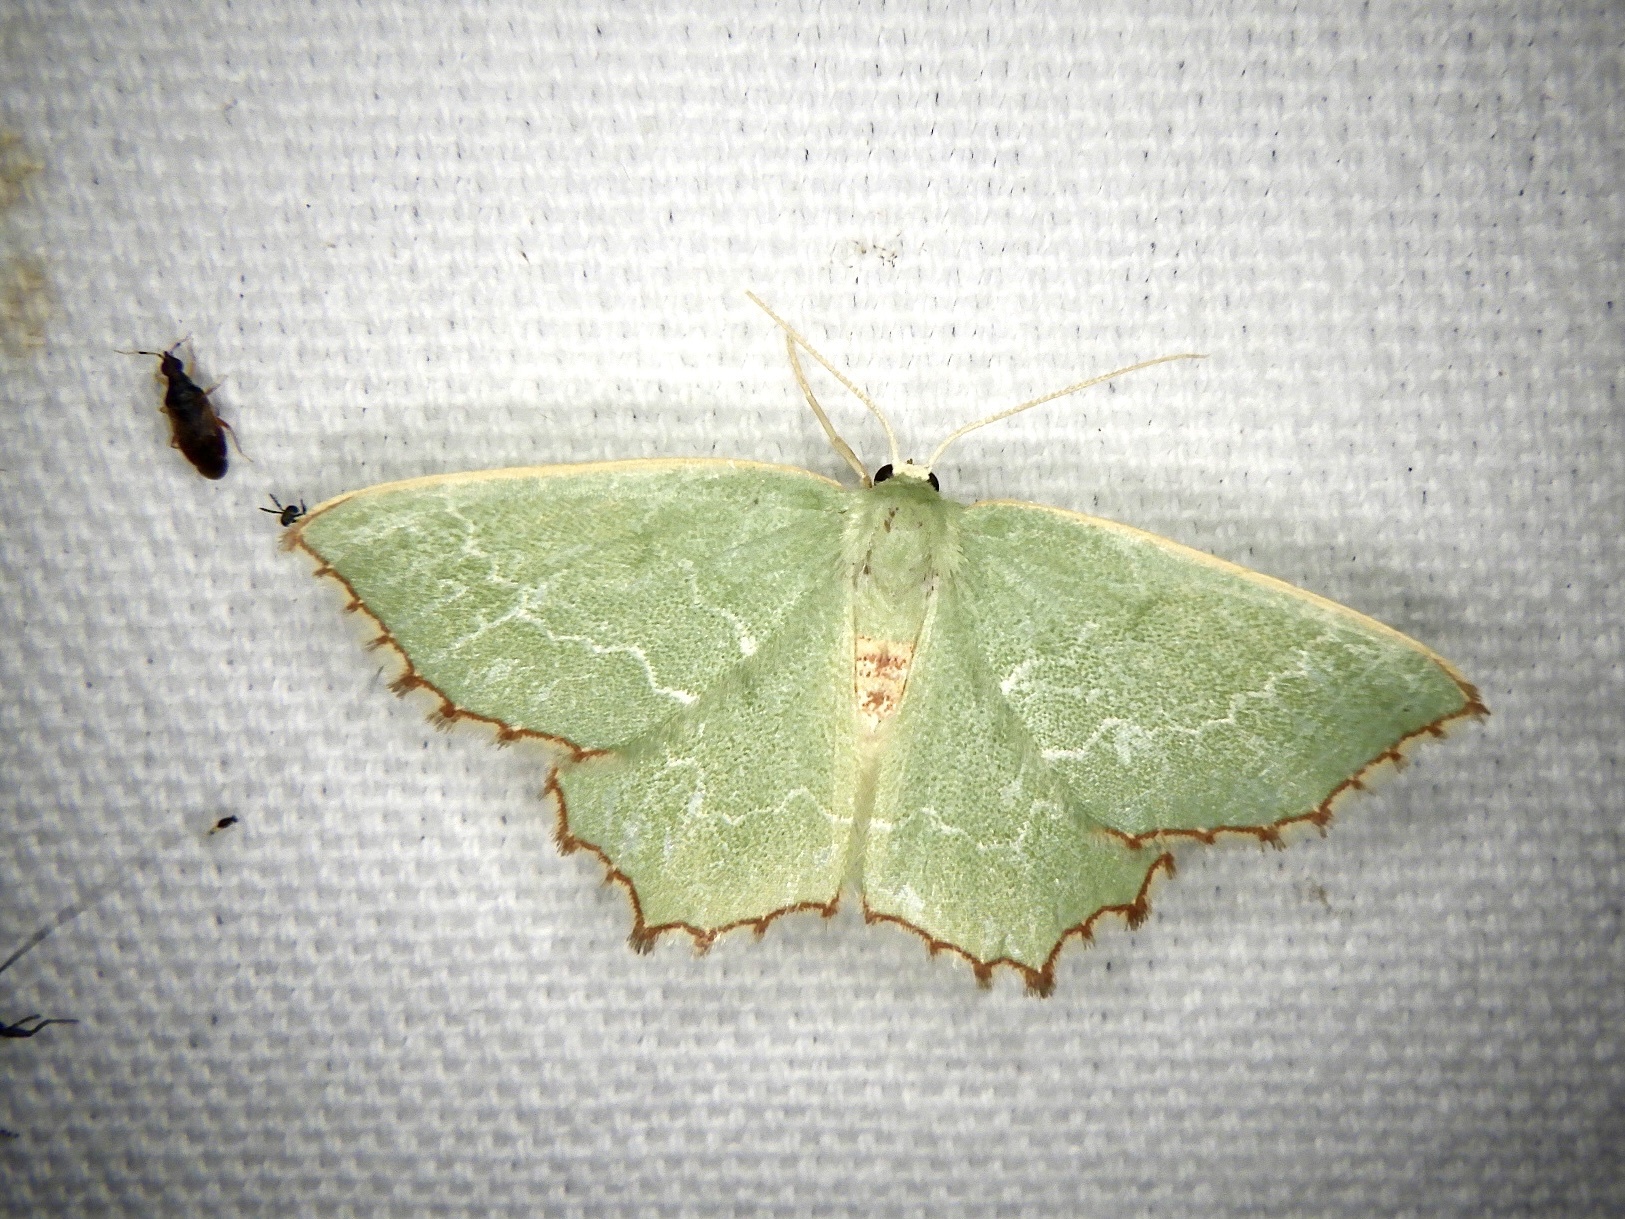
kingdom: Animalia
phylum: Arthropoda
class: Insecta
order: Lepidoptera
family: Geometridae
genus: Culpinia
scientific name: Culpinia diffusa
